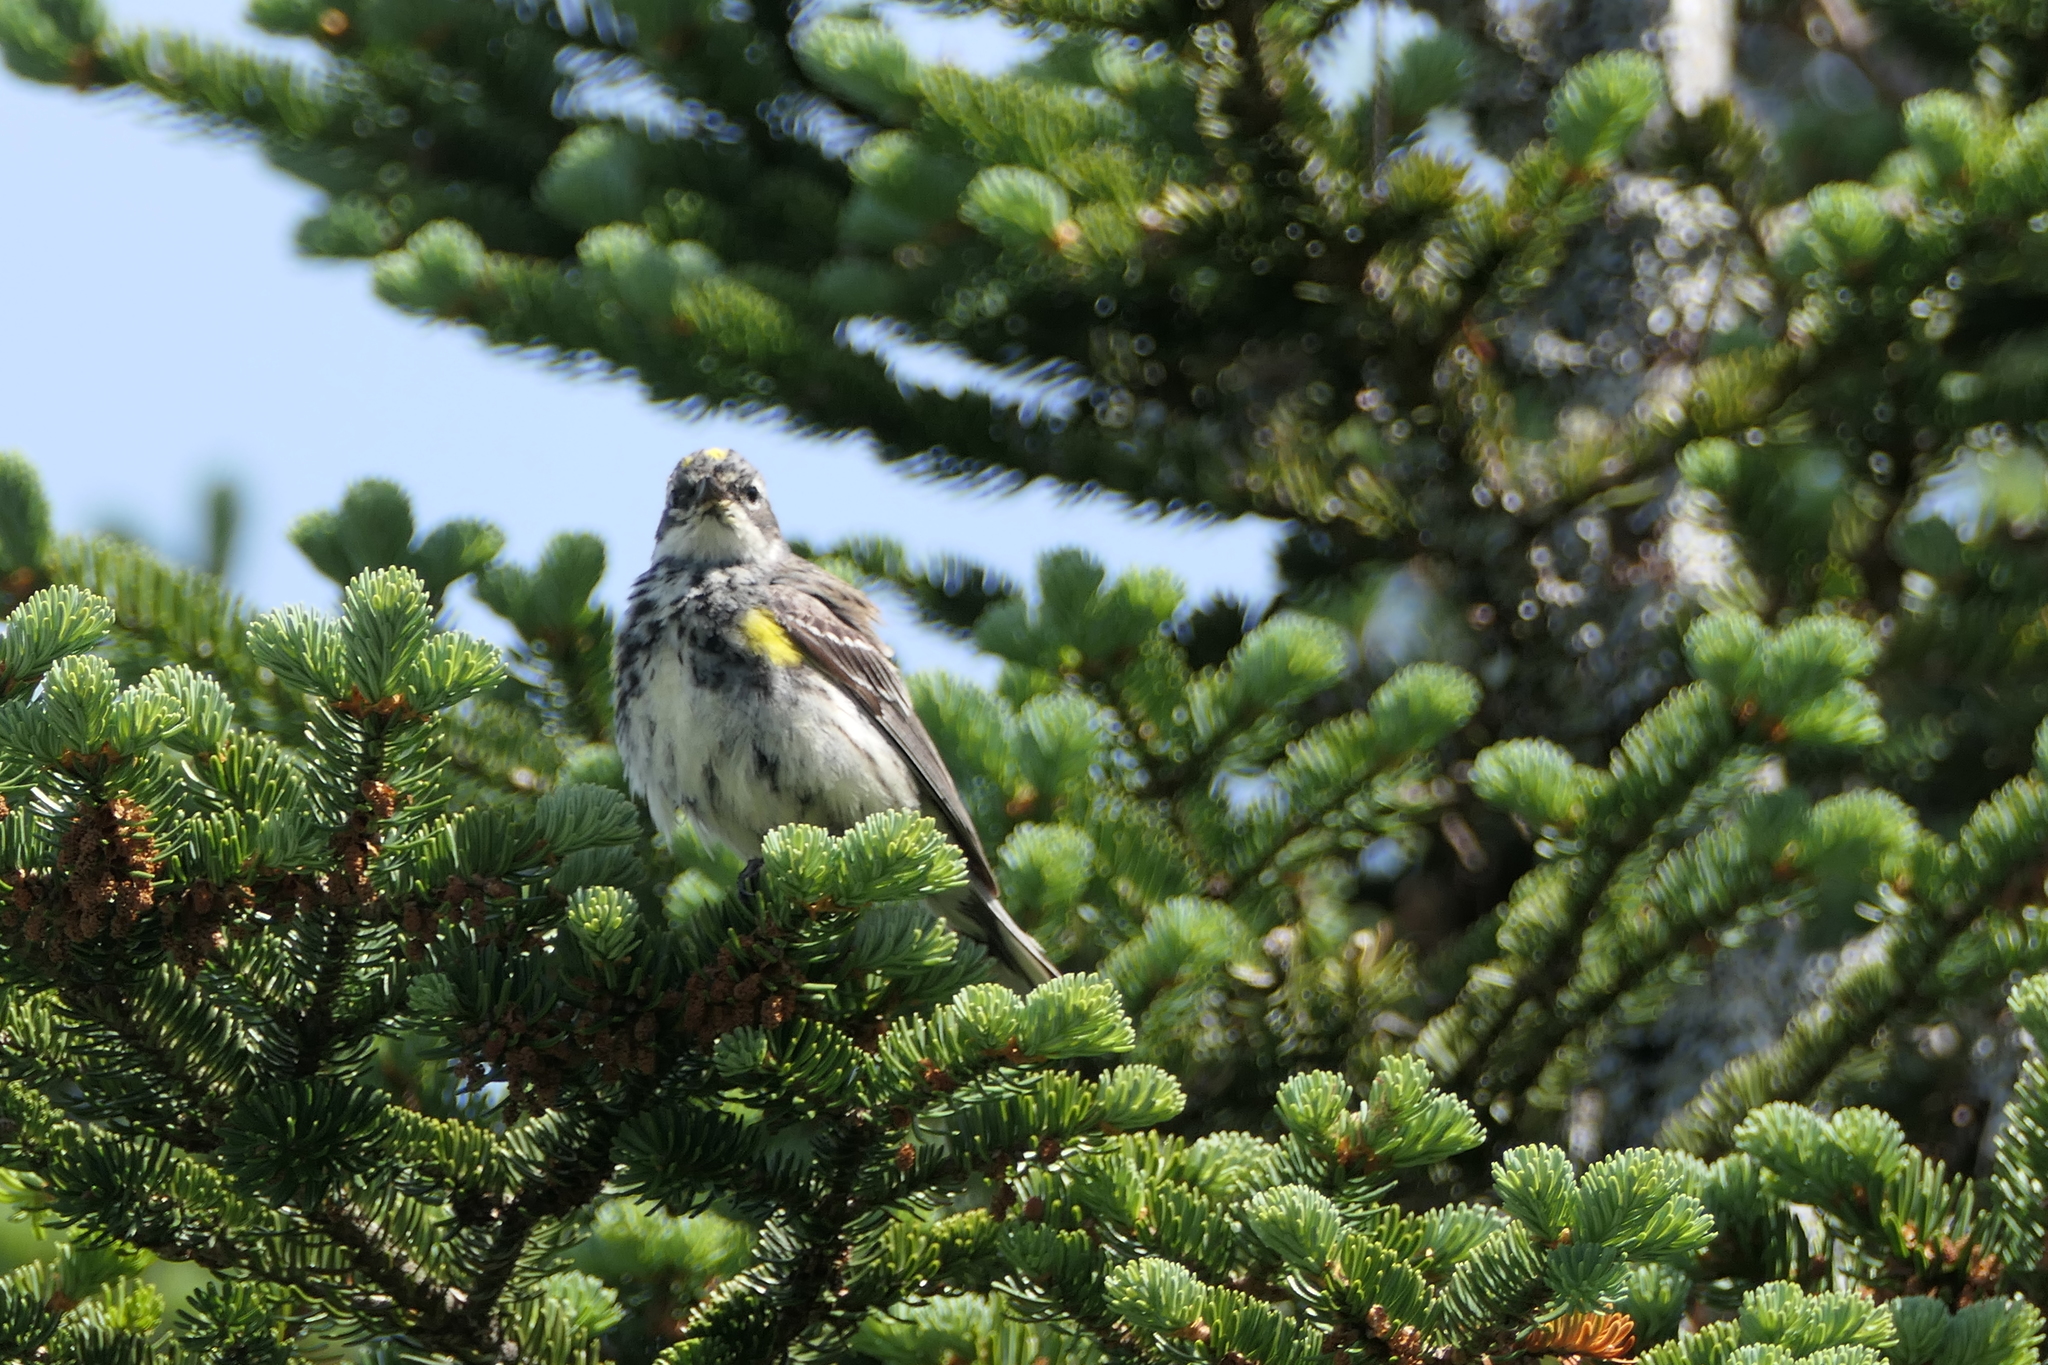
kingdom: Animalia
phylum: Chordata
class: Aves
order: Passeriformes
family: Parulidae
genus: Setophaga
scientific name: Setophaga coronata
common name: Myrtle warbler
